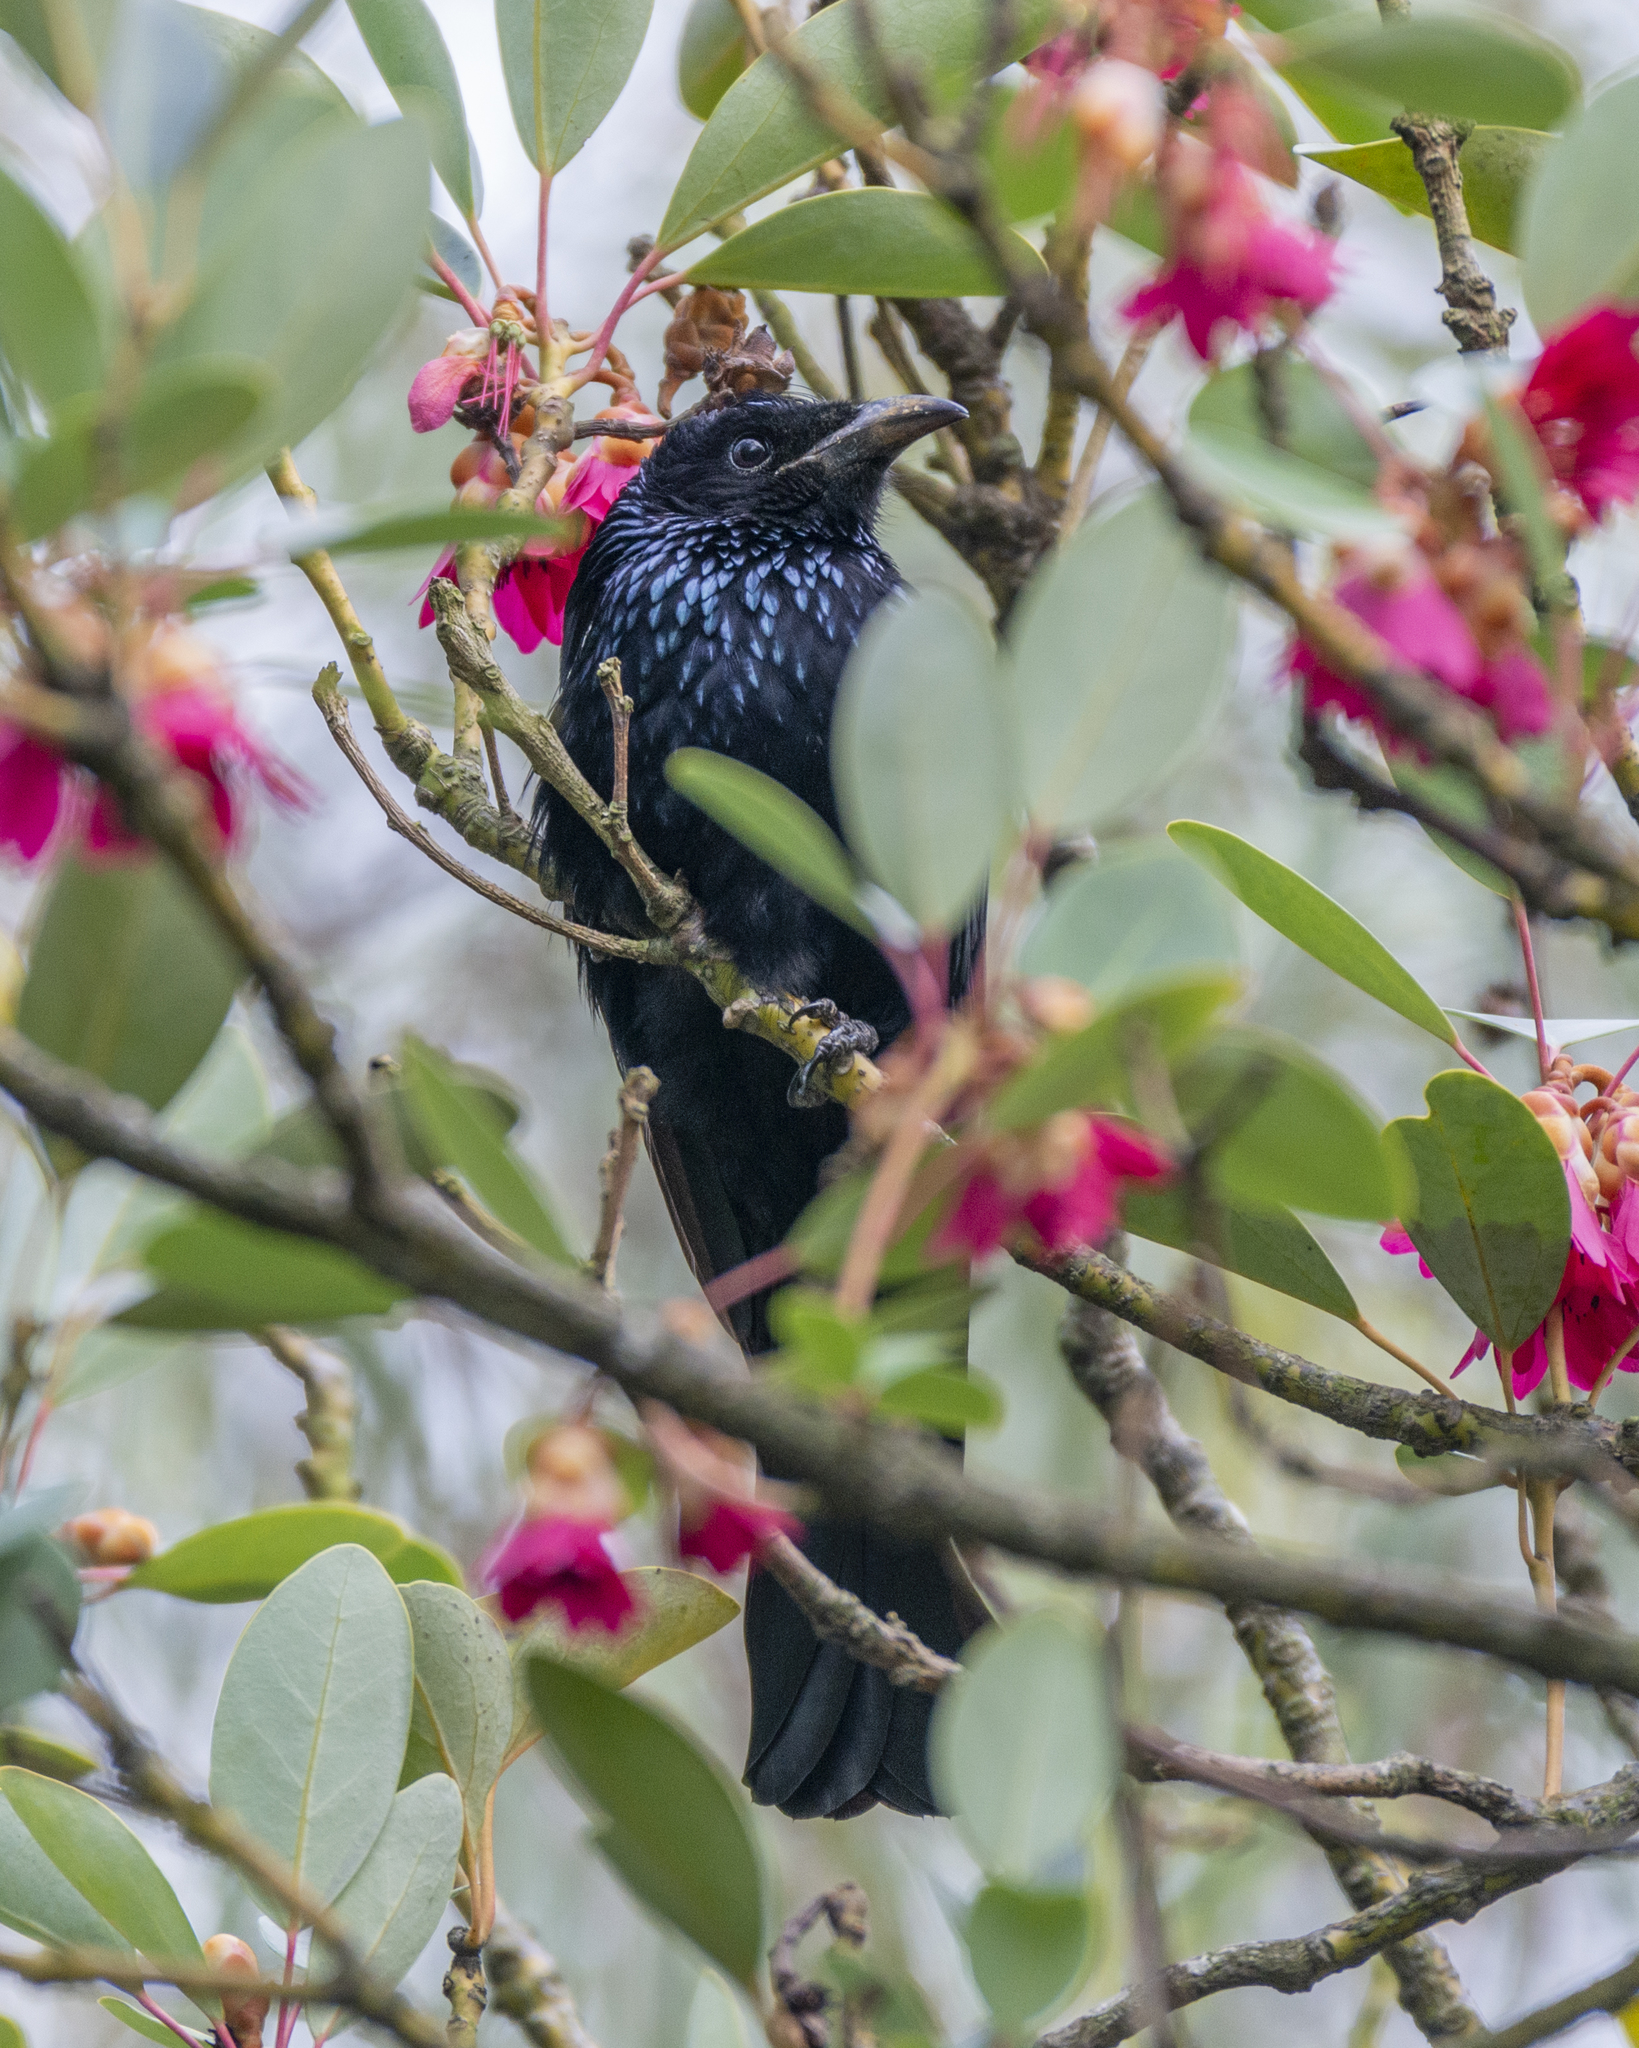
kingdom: Animalia
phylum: Chordata
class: Aves
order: Passeriformes
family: Dicruridae
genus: Dicrurus
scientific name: Dicrurus hottentottus
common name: Hair-crested drongo
